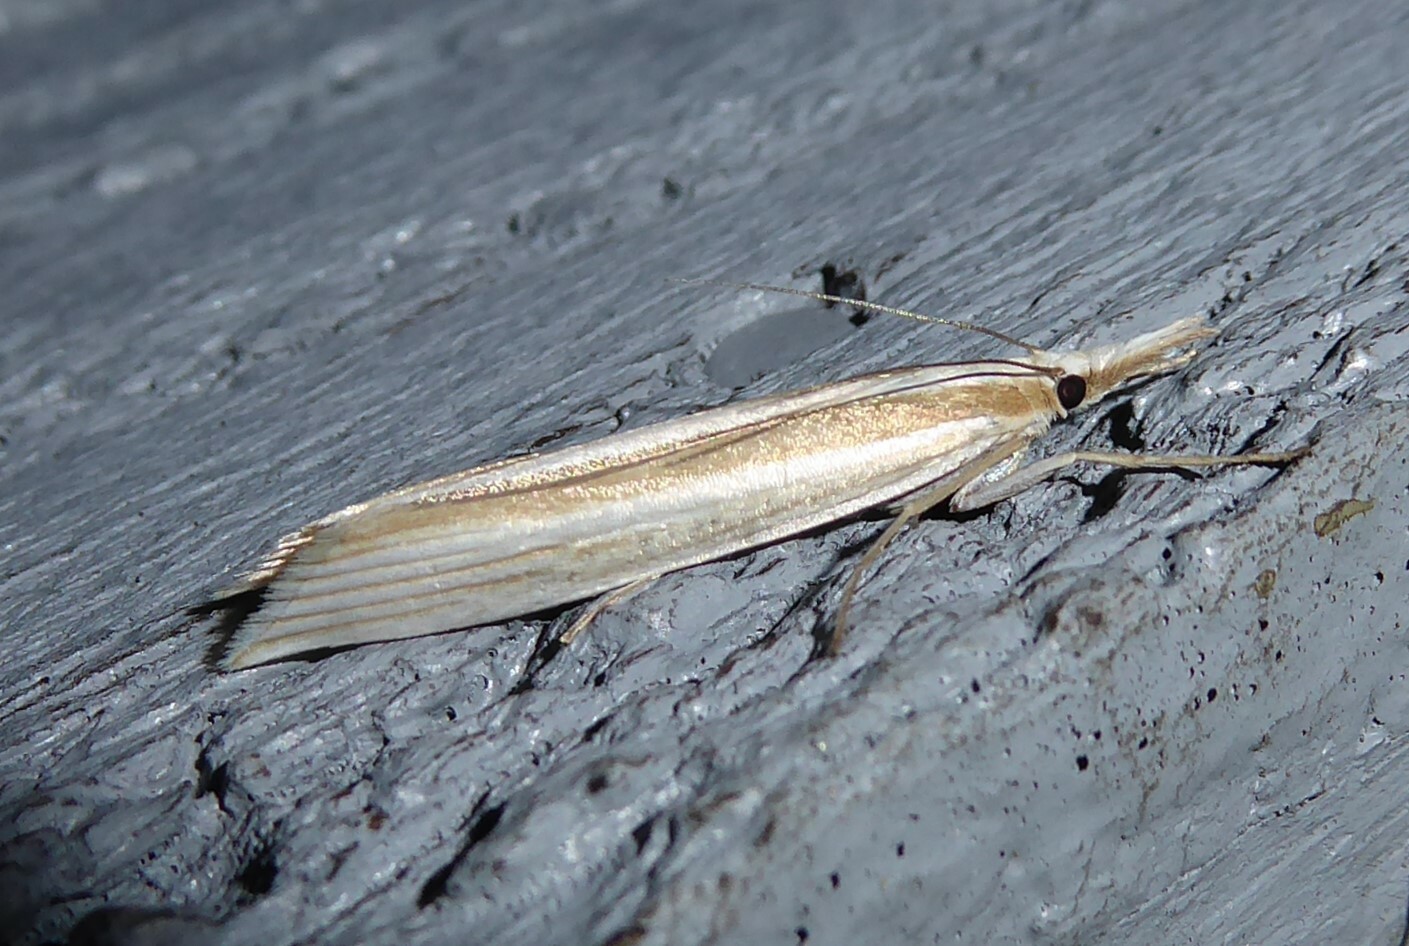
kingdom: Animalia
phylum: Arthropoda
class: Insecta
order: Lepidoptera
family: Crambidae
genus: Orocrambus
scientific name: Orocrambus angustipennis
